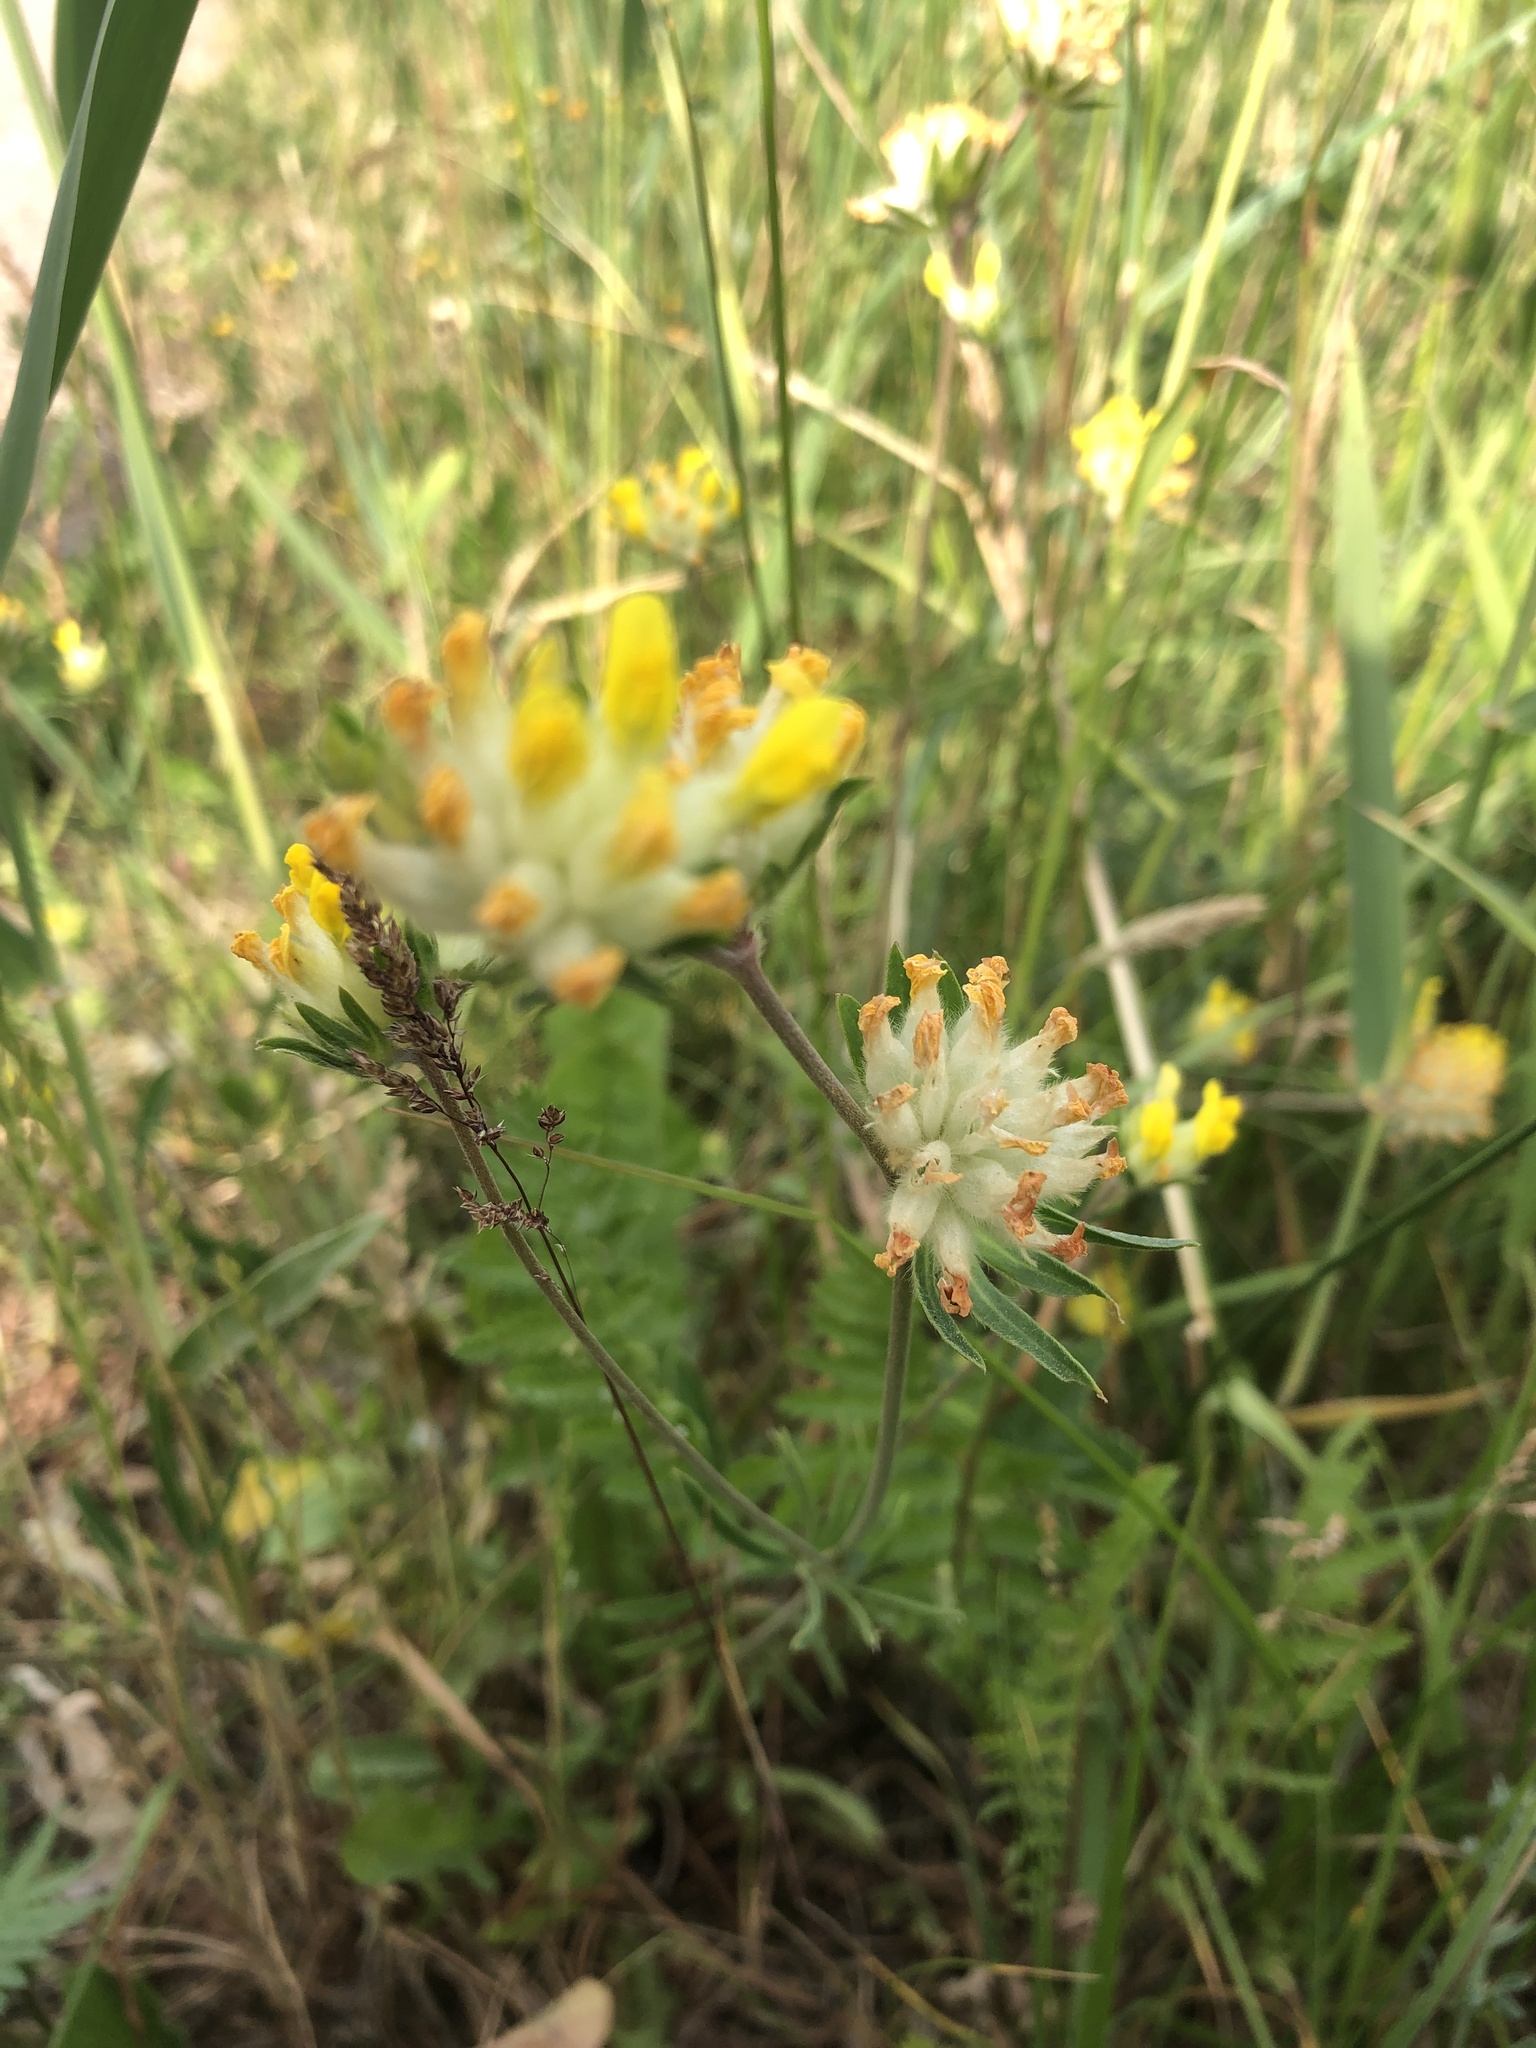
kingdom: Plantae
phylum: Tracheophyta
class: Magnoliopsida
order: Fabales
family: Fabaceae
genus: Anthyllis
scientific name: Anthyllis vulneraria
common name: Kidney vetch
